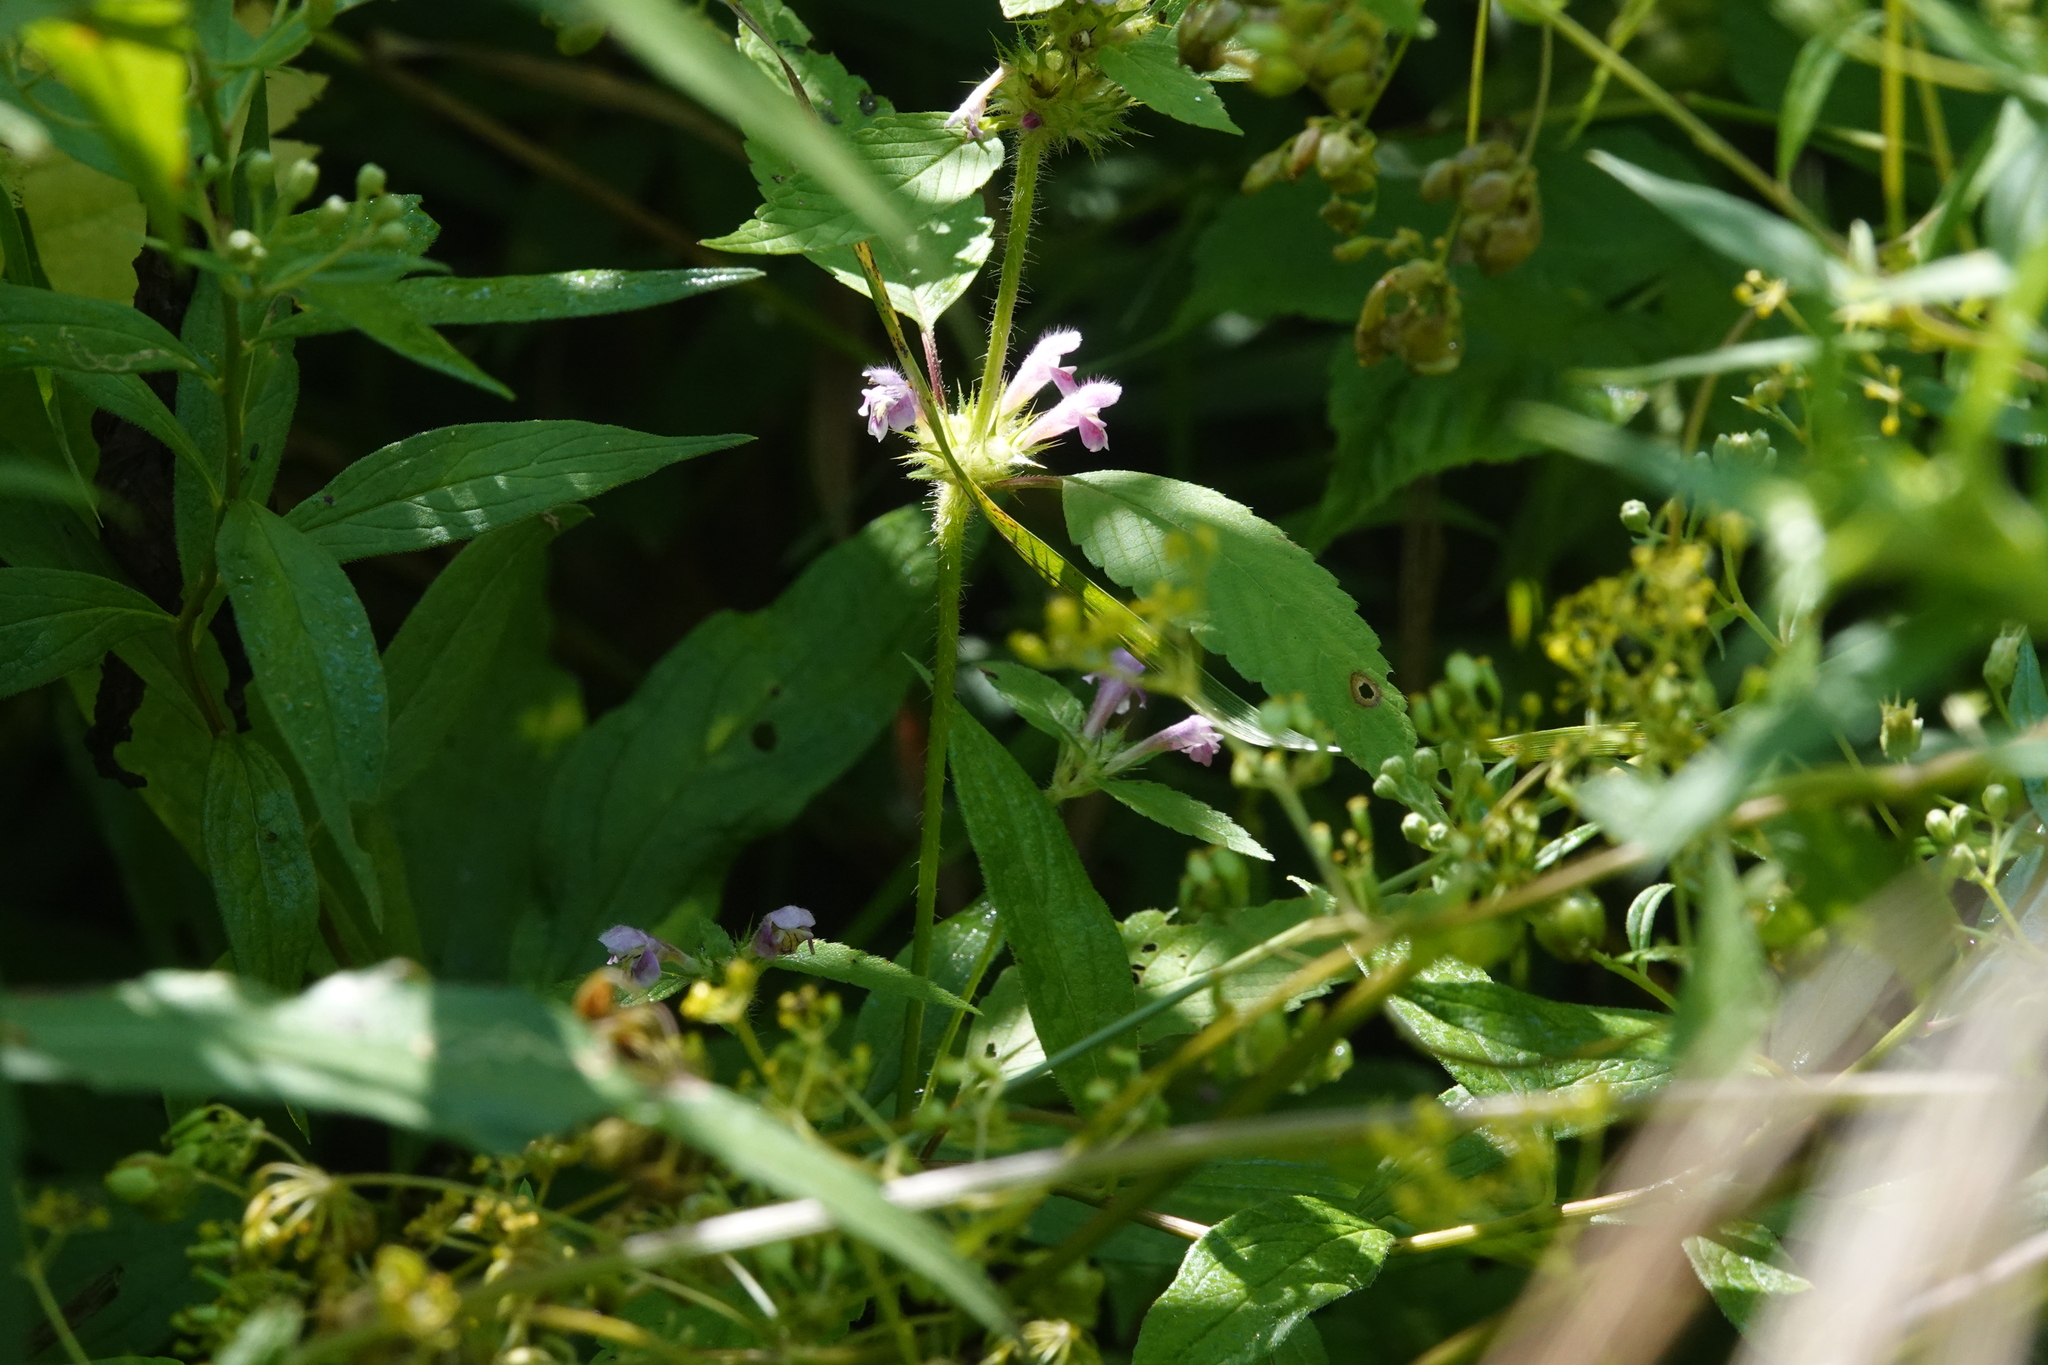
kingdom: Plantae
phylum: Tracheophyta
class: Magnoliopsida
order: Lamiales
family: Lamiaceae
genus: Galeopsis
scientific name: Galeopsis tetrahit
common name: Common hemp-nettle
